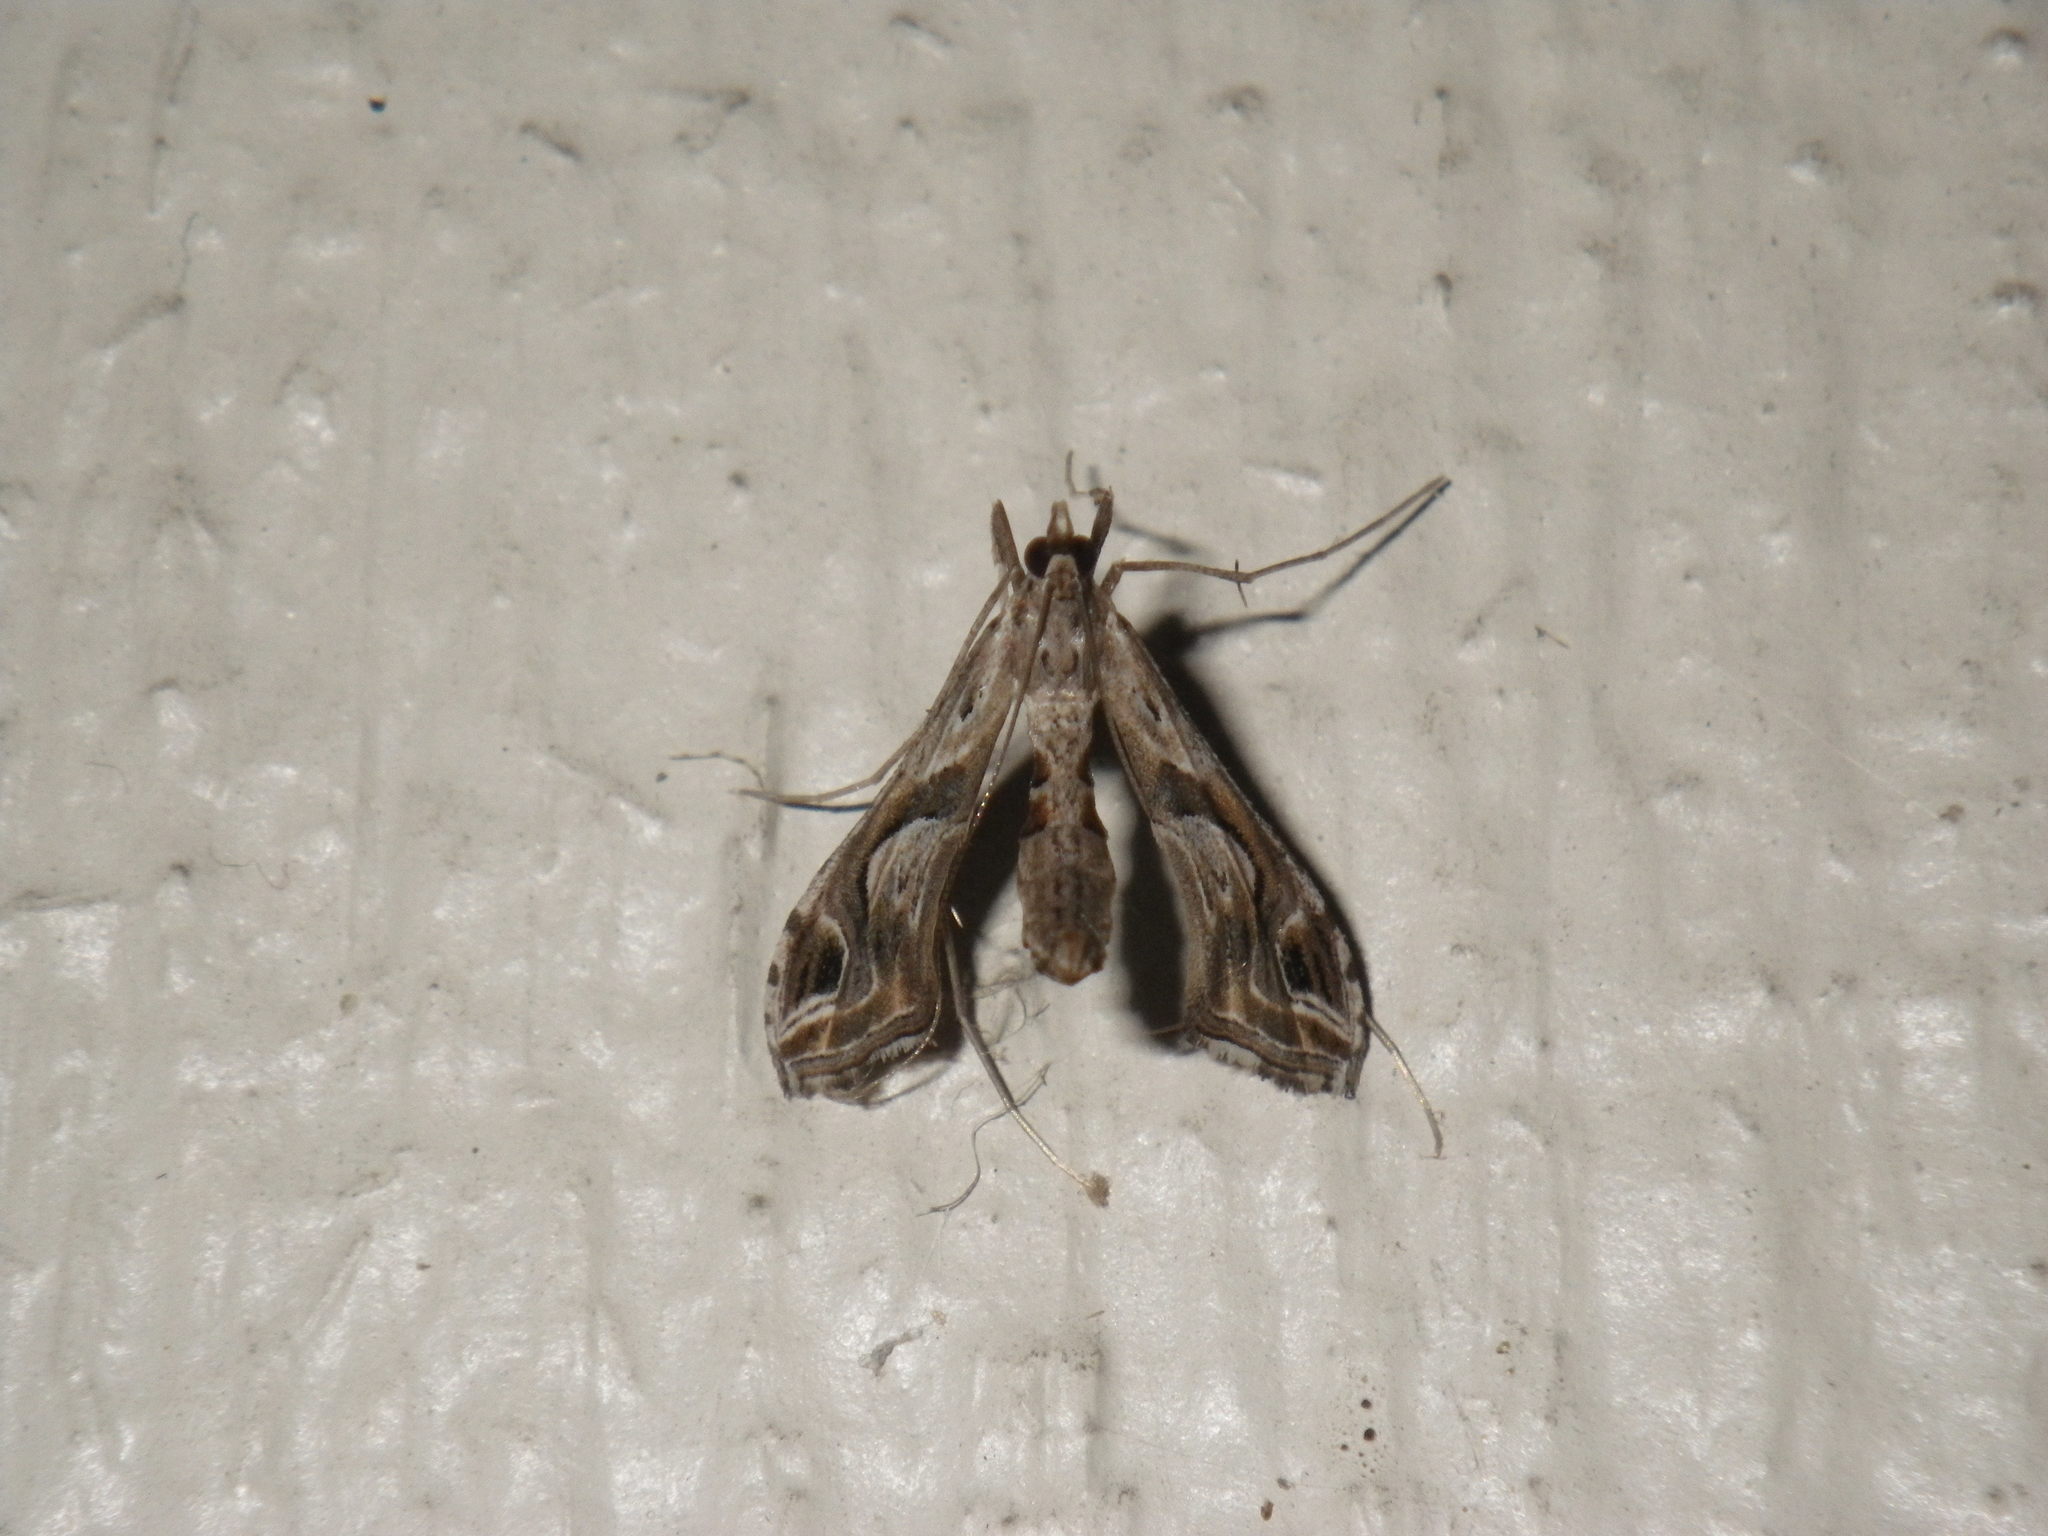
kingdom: Animalia
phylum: Arthropoda
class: Insecta
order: Lepidoptera
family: Crambidae
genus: Lineodes
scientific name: Lineodes integra
